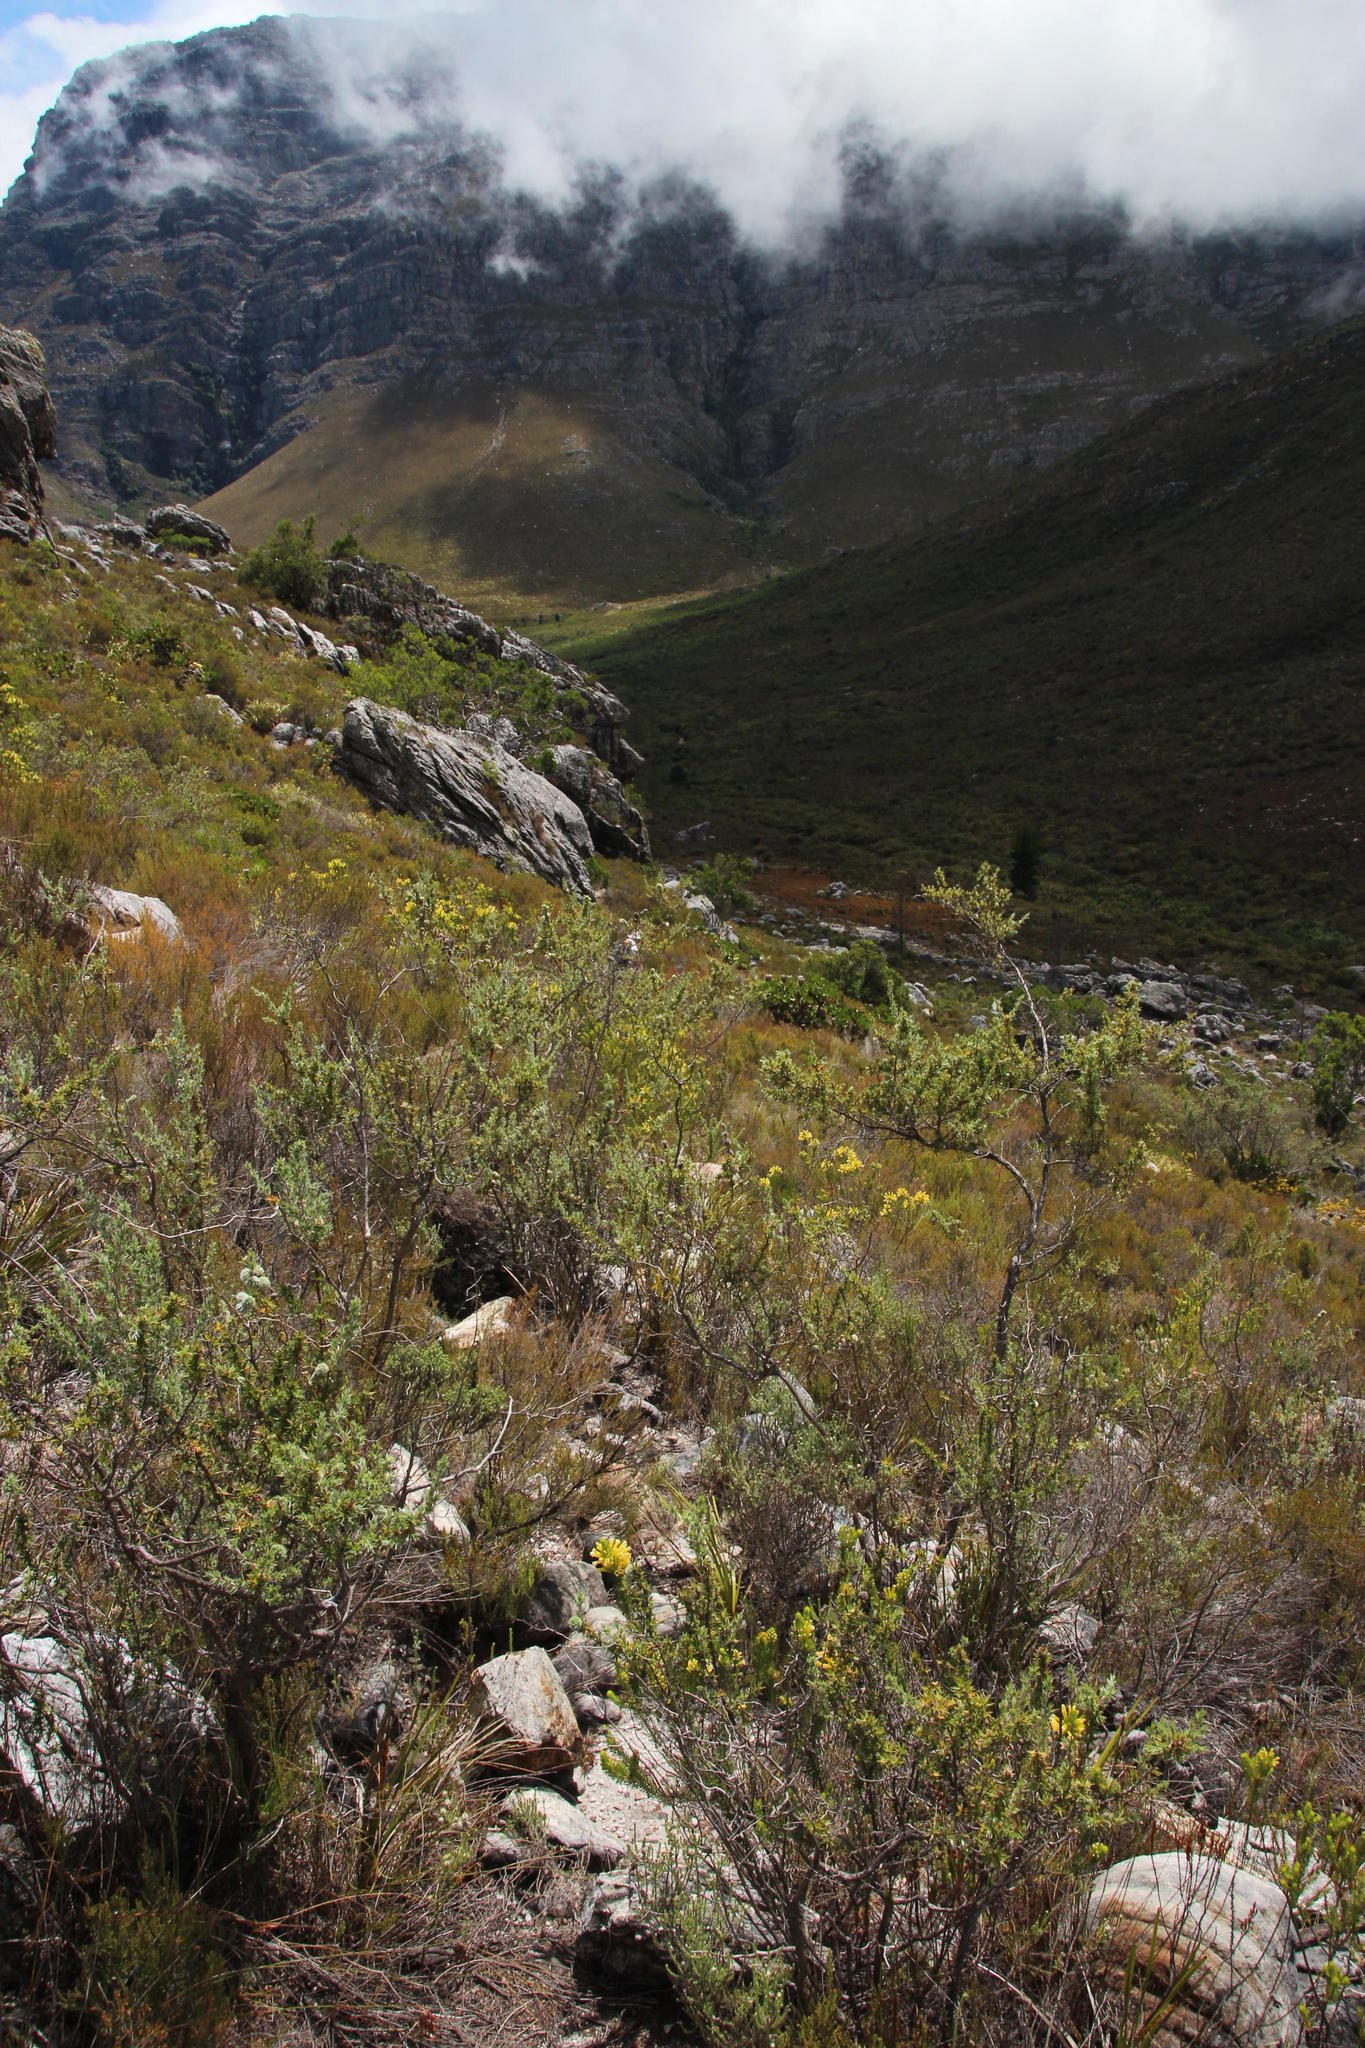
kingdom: Plantae
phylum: Tracheophyta
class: Magnoliopsida
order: Rosales
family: Rosaceae
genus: Cliffortia
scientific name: Cliffortia ruscifolia
